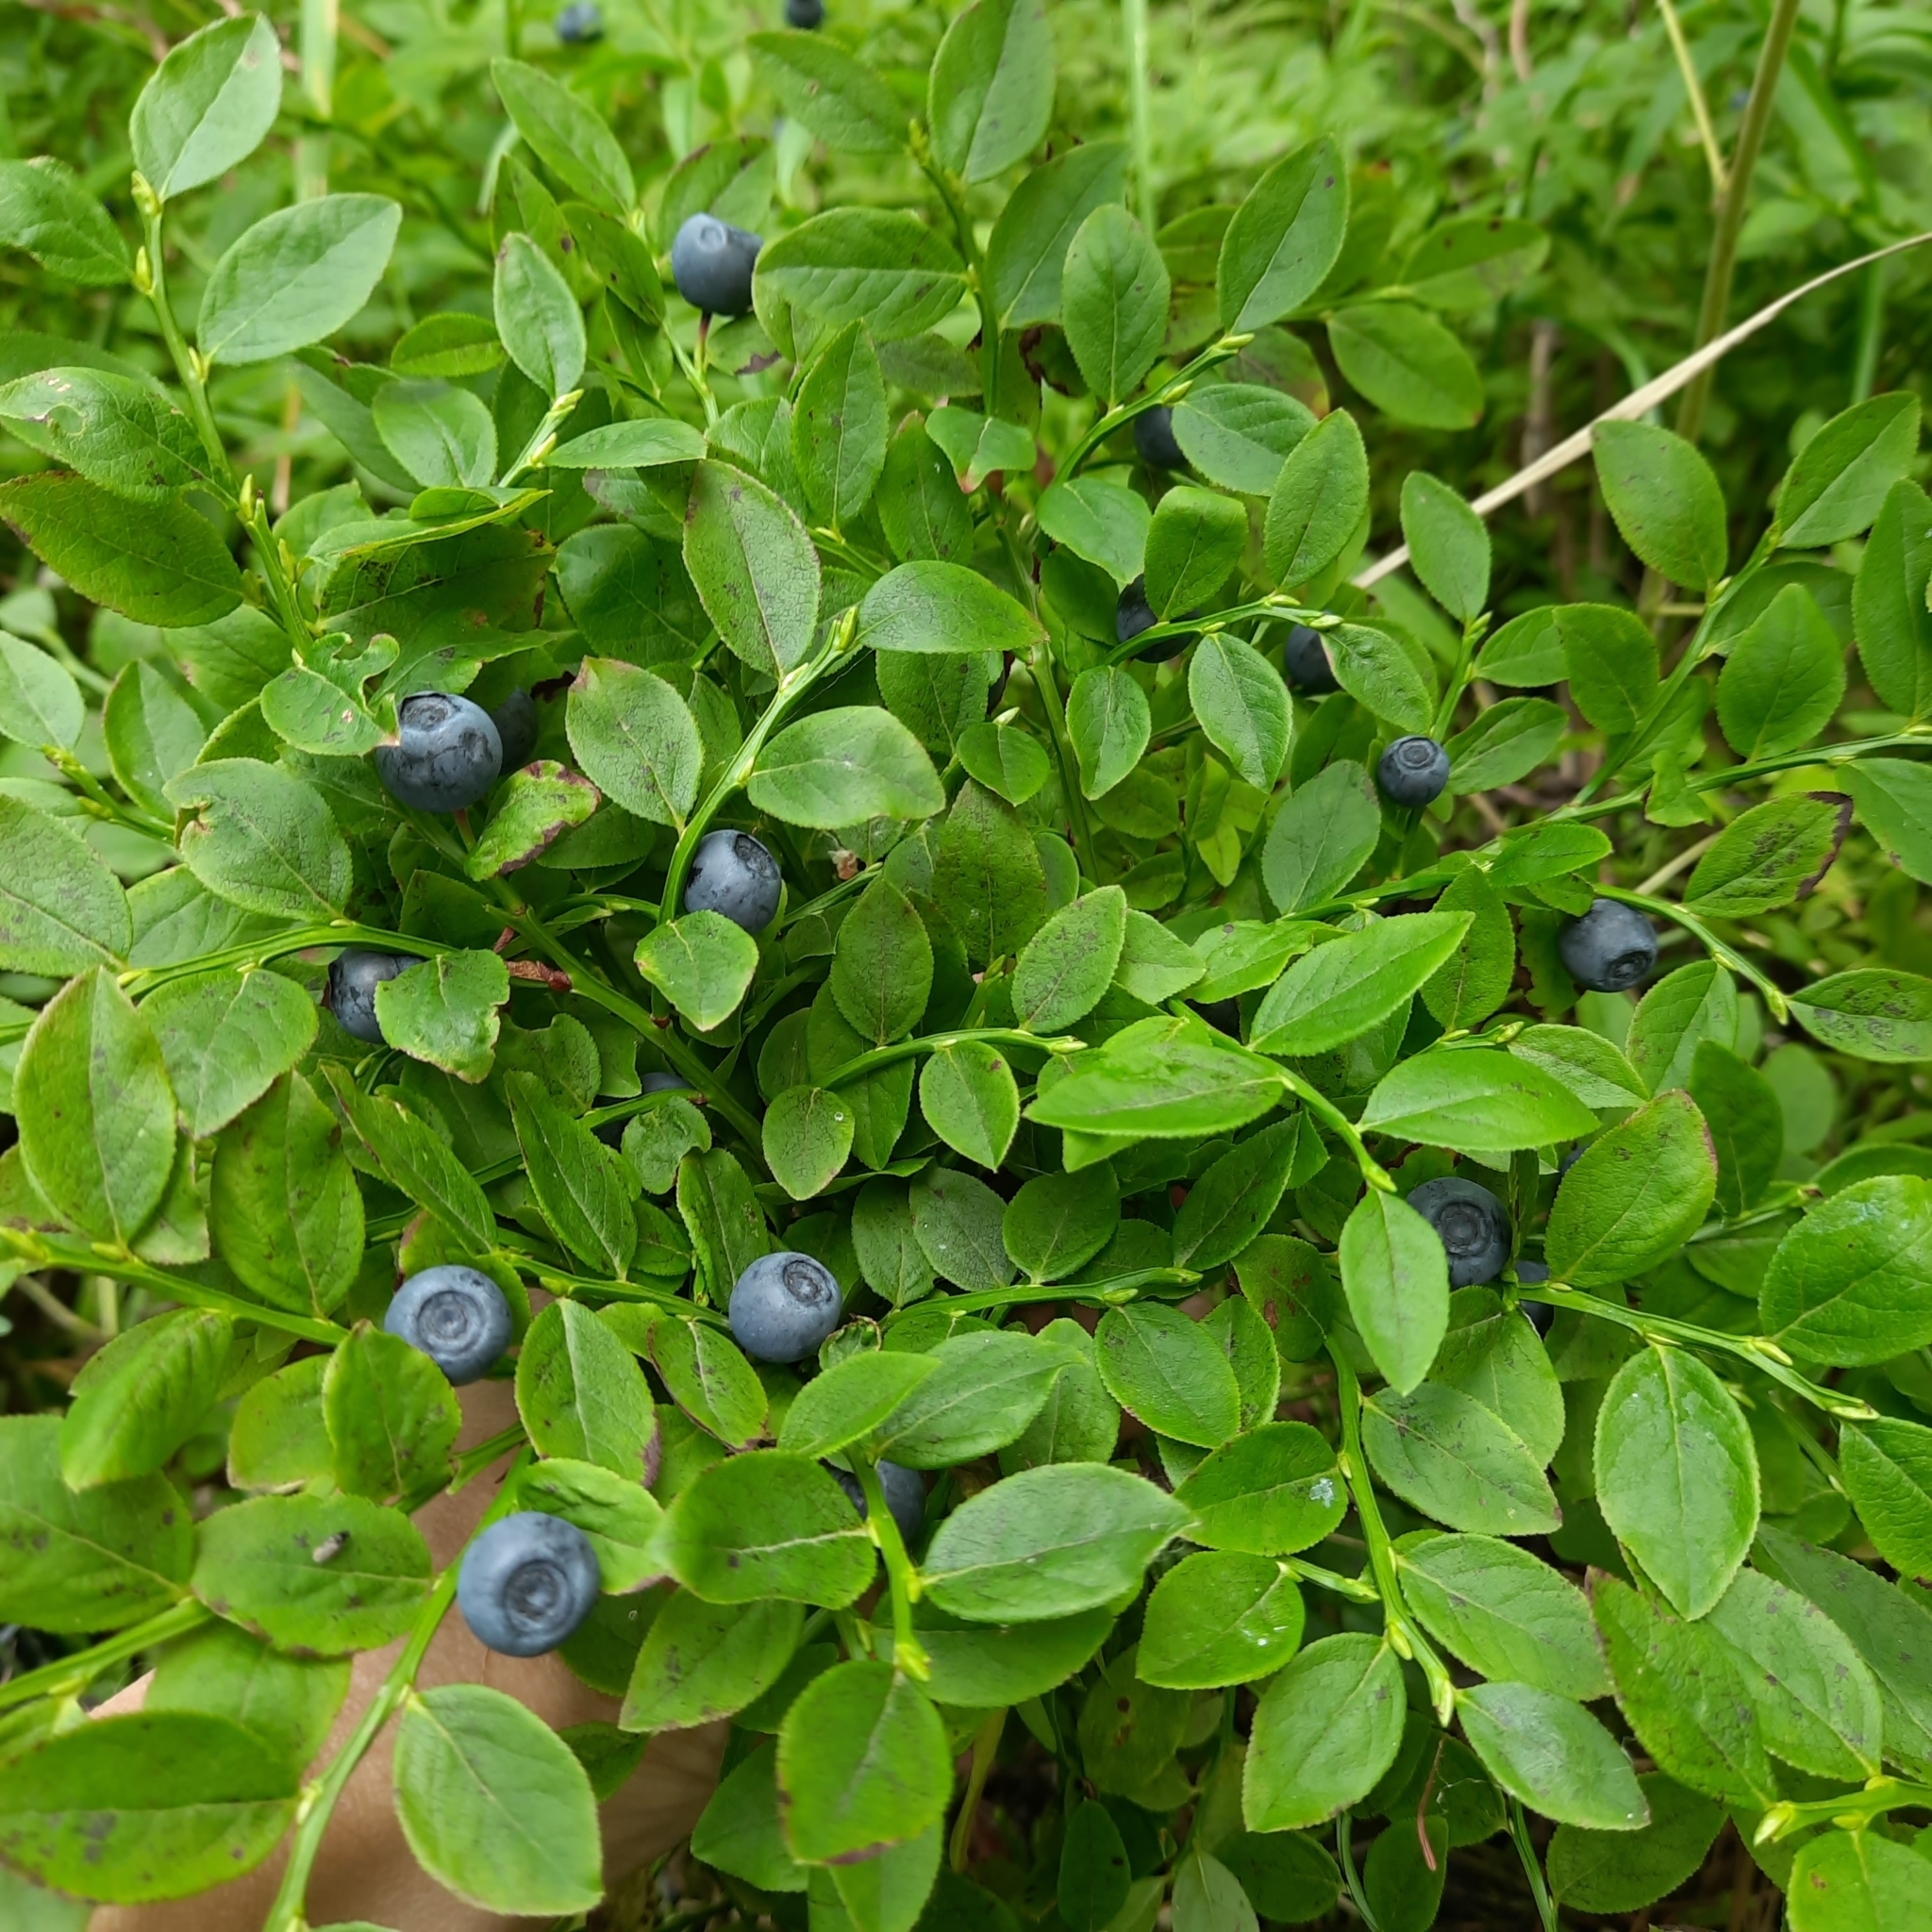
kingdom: Plantae
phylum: Tracheophyta
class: Magnoliopsida
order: Ericales
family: Ericaceae
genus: Vaccinium
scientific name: Vaccinium myrtillus
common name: Bilberry
